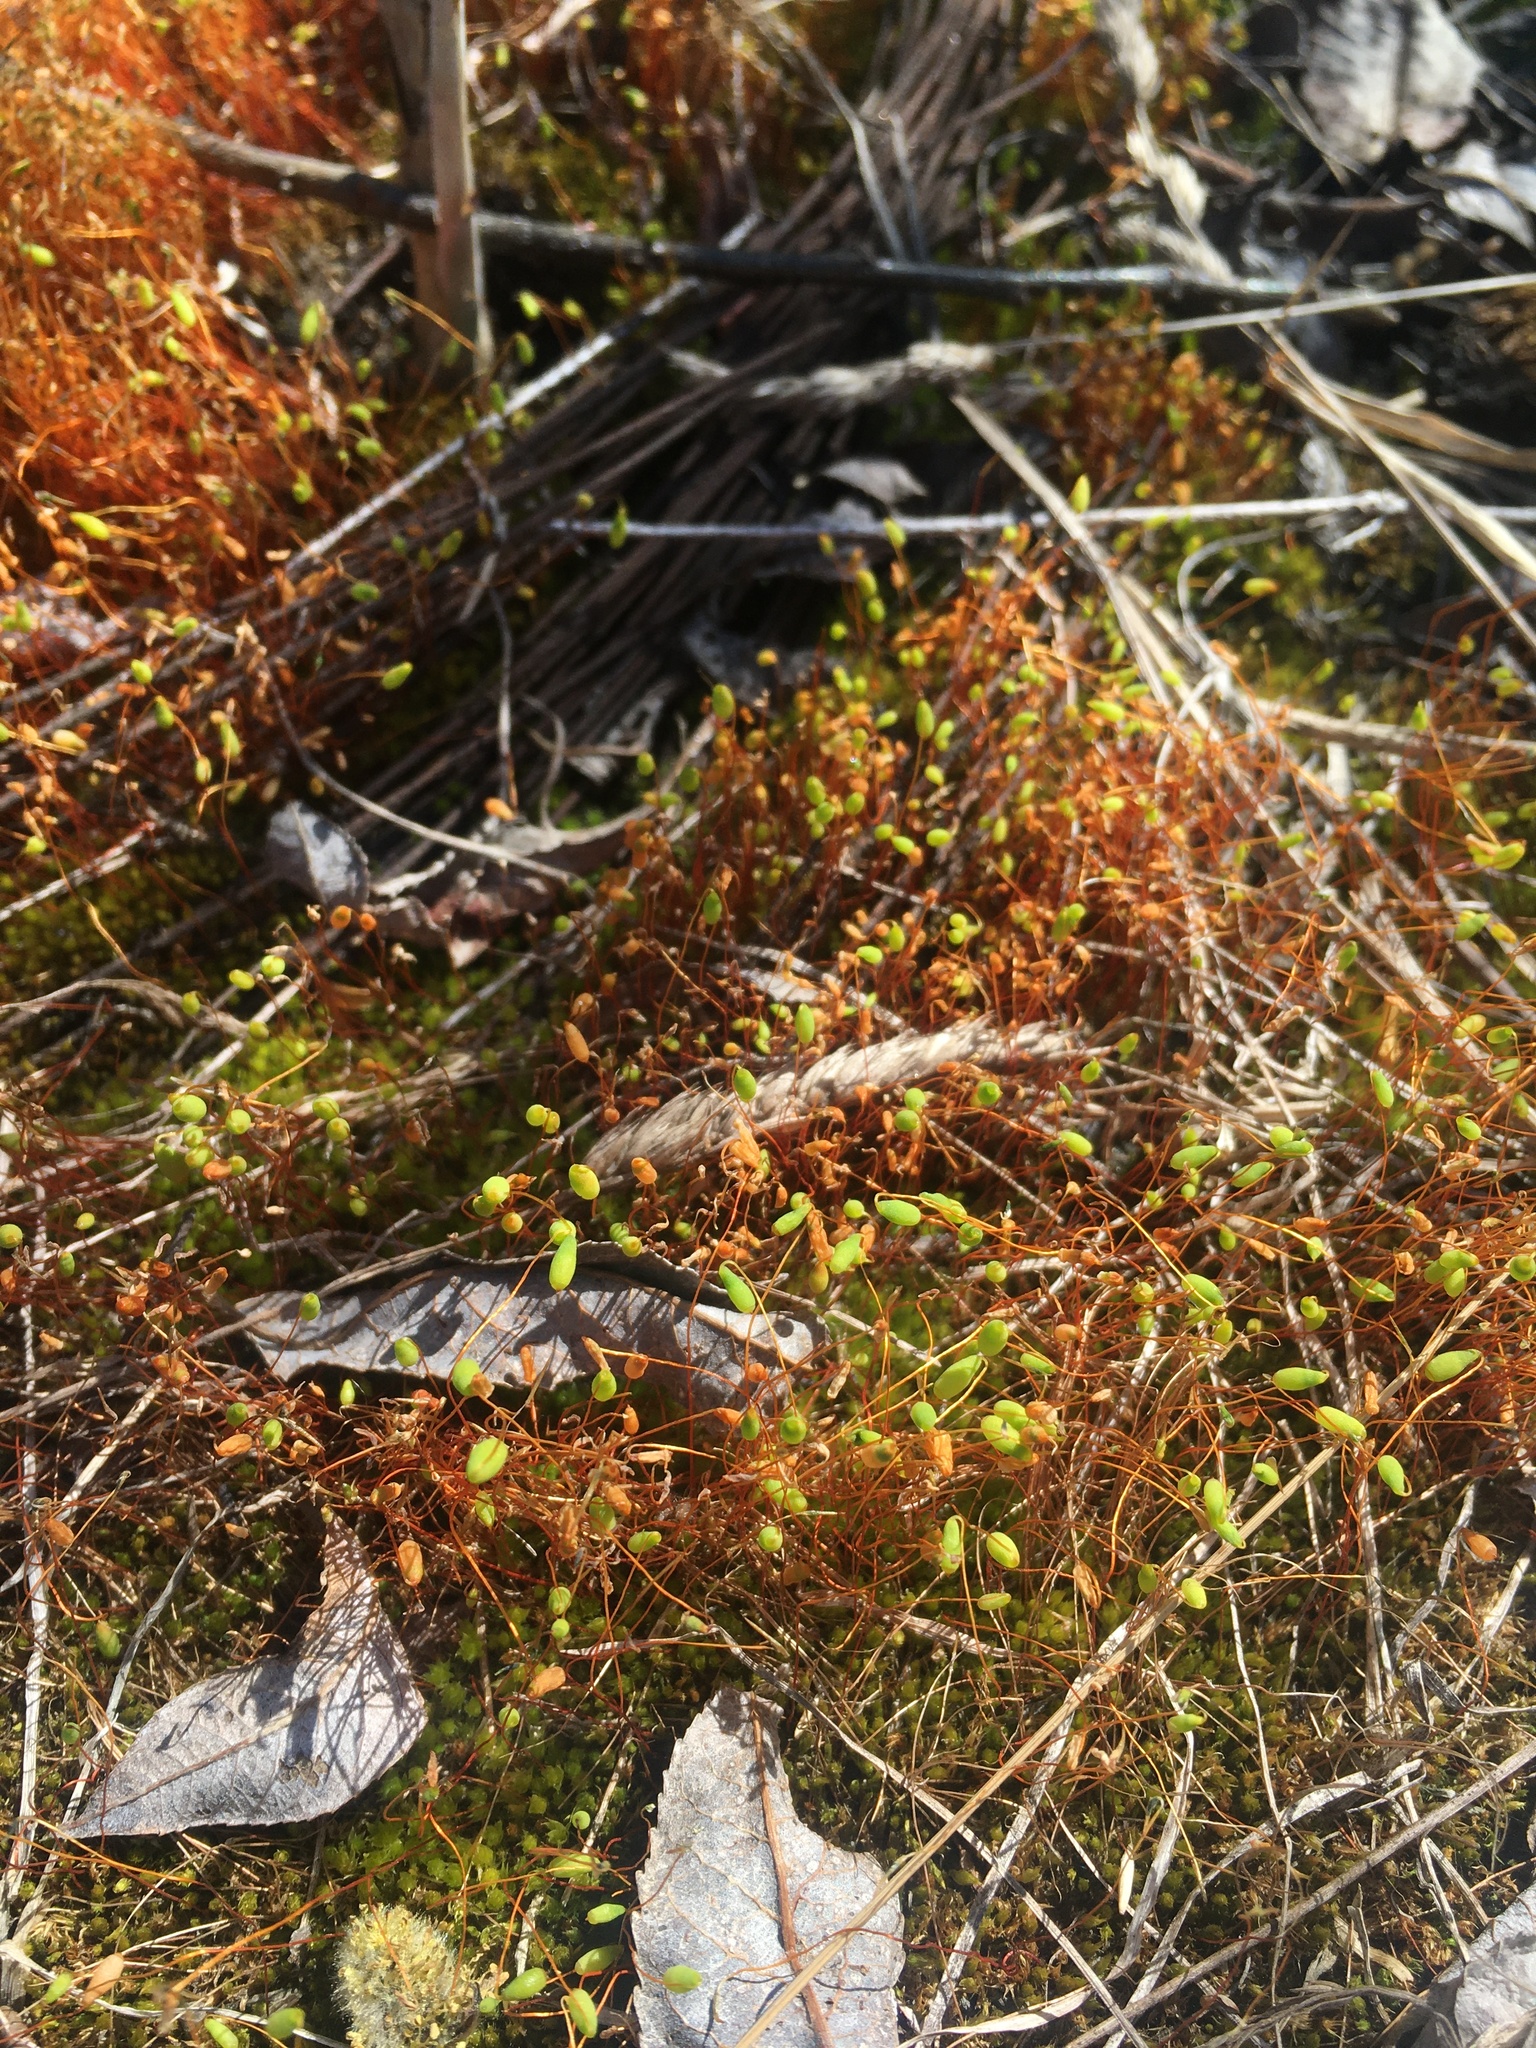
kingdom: Plantae
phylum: Bryophyta
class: Bryopsida
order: Funariales
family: Funariaceae
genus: Funaria
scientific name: Funaria hygrometrica
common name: Common cord moss
